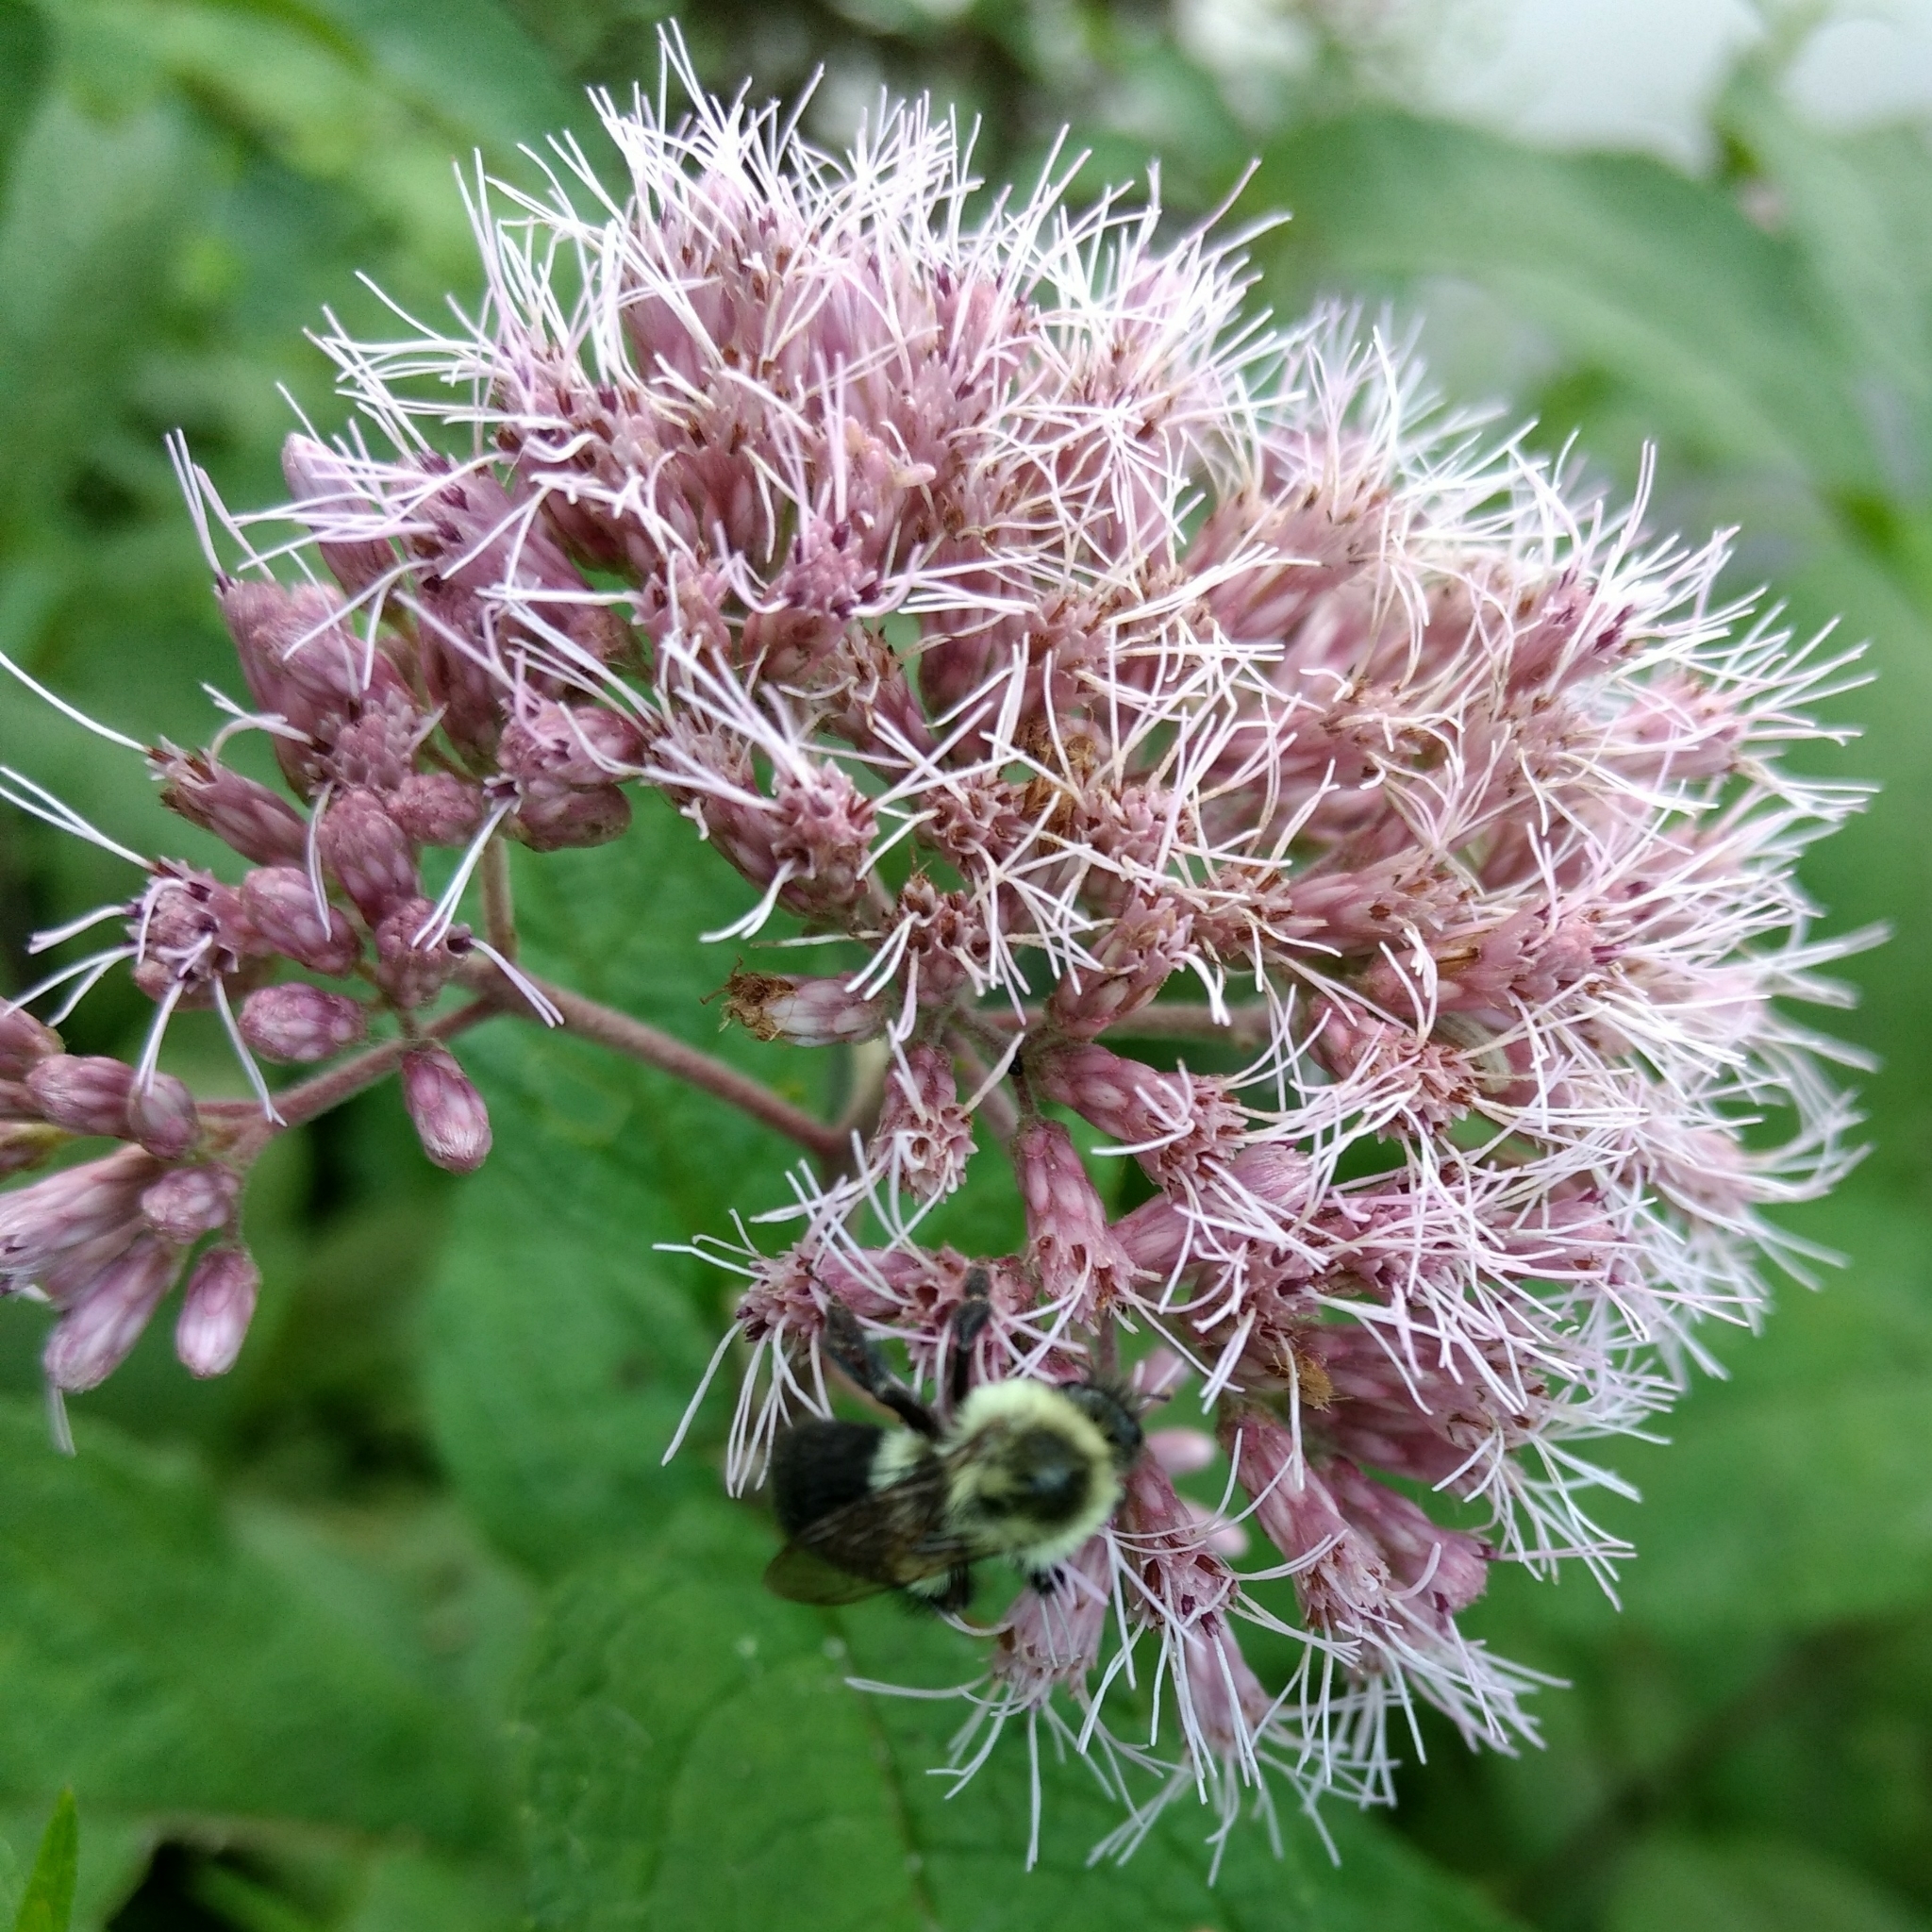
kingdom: Animalia
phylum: Arthropoda
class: Insecta
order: Hymenoptera
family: Apidae
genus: Bombus
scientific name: Bombus impatiens
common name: Common eastern bumble bee
